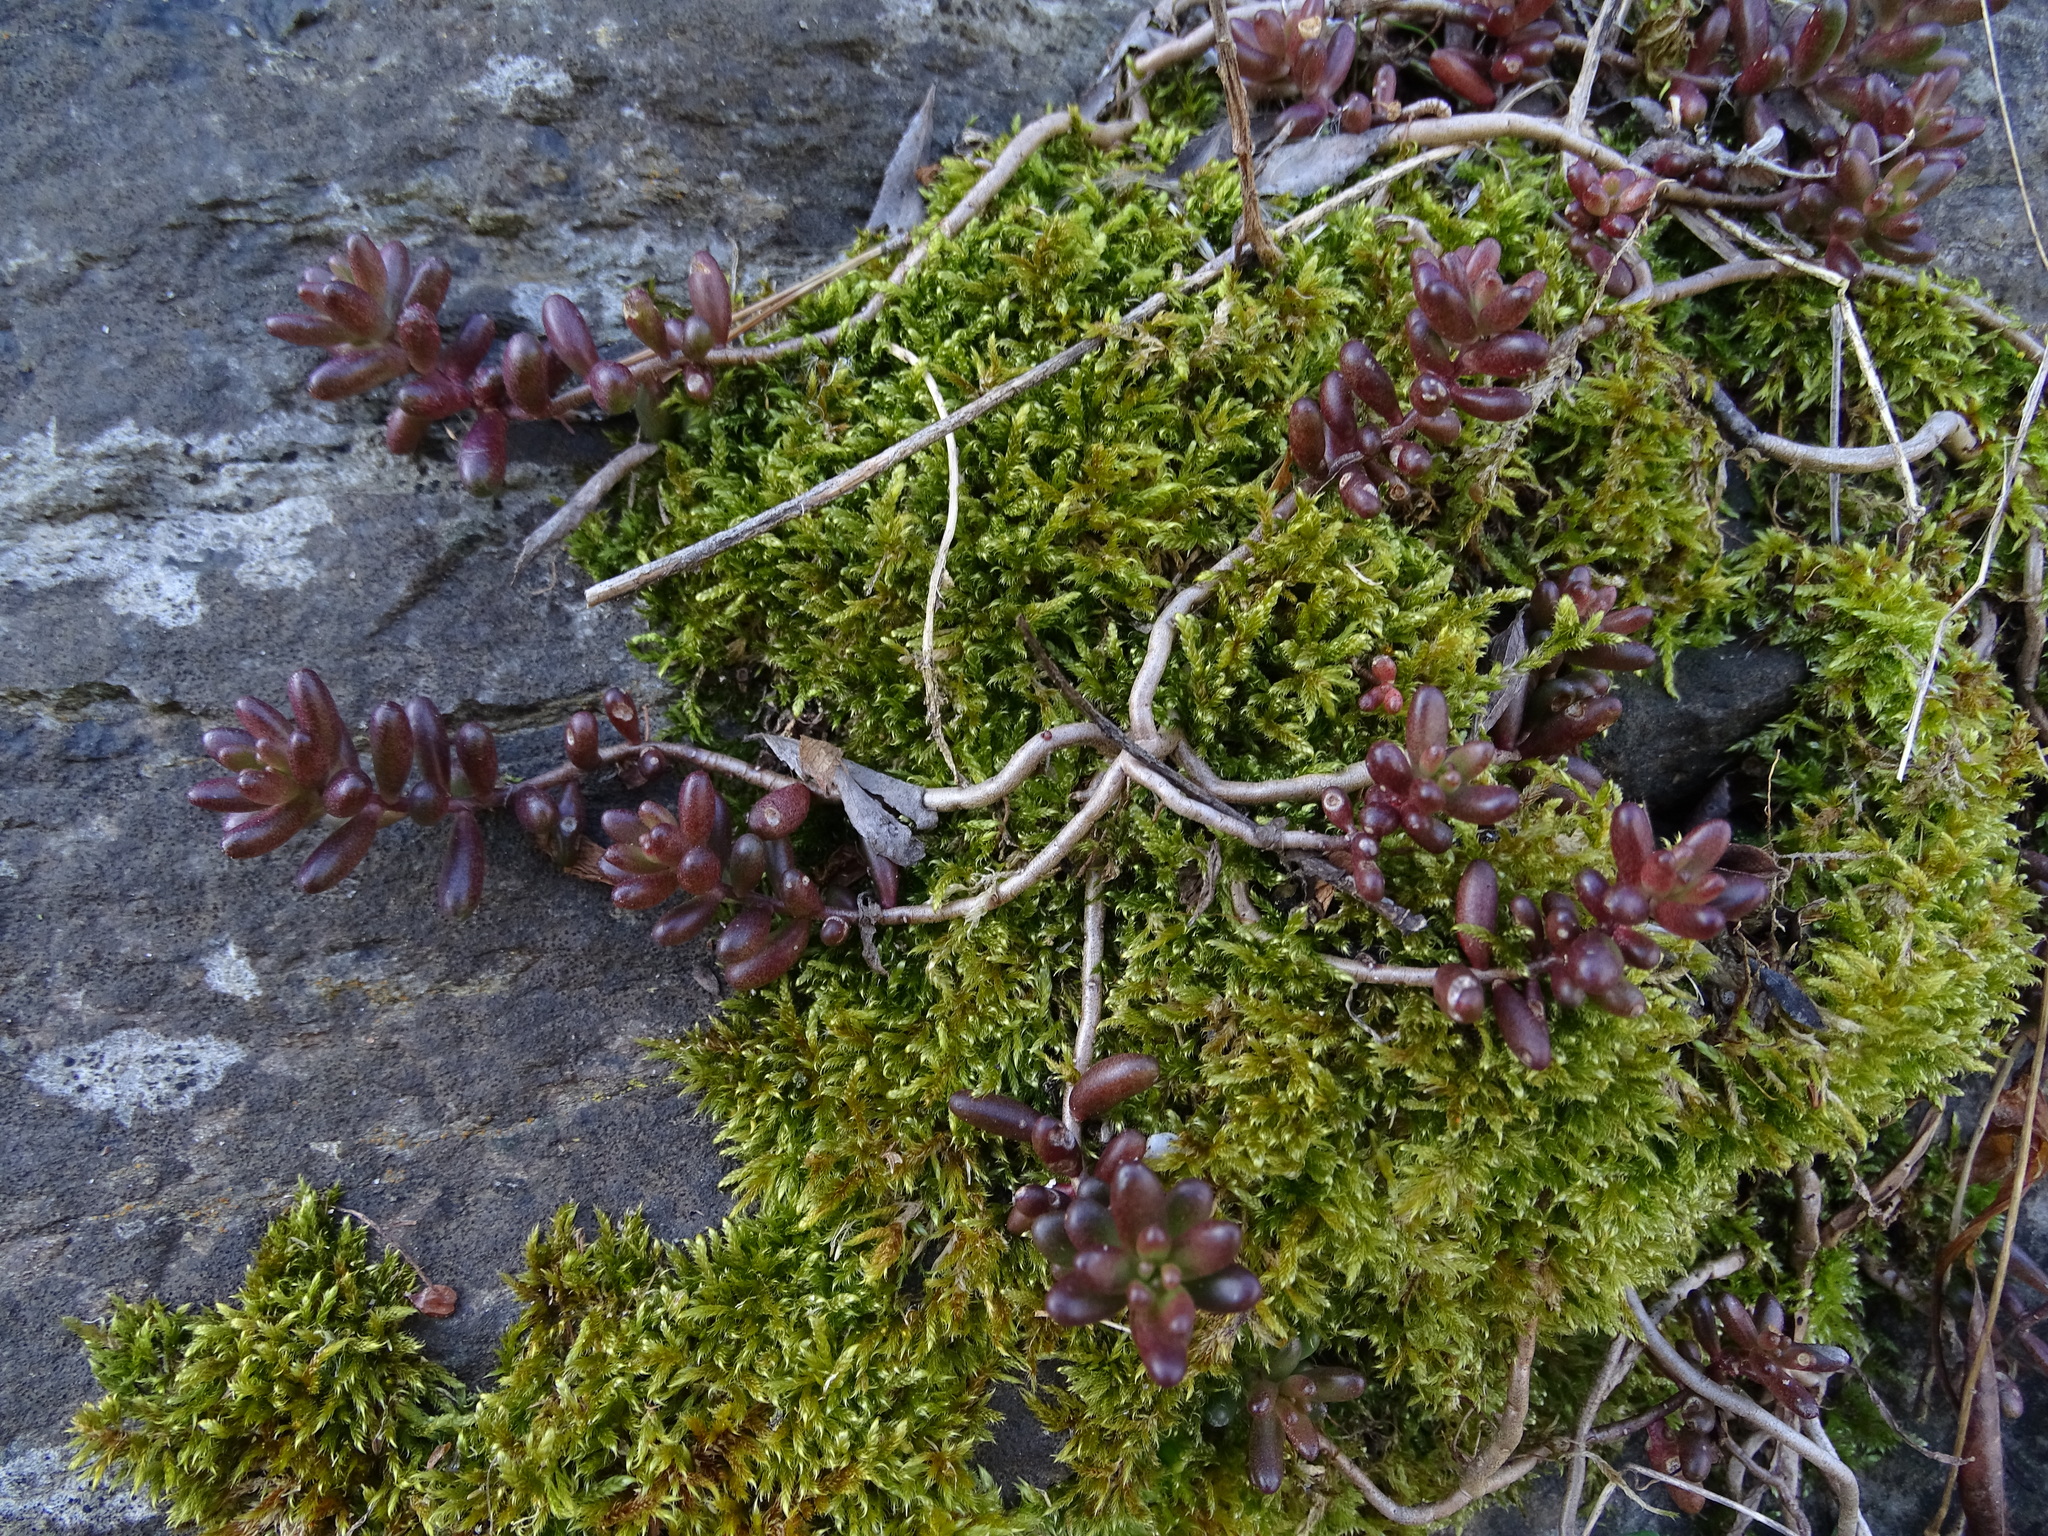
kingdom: Plantae
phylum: Tracheophyta
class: Magnoliopsida
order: Saxifragales
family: Crassulaceae
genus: Sedum
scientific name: Sedum album
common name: White stonecrop
